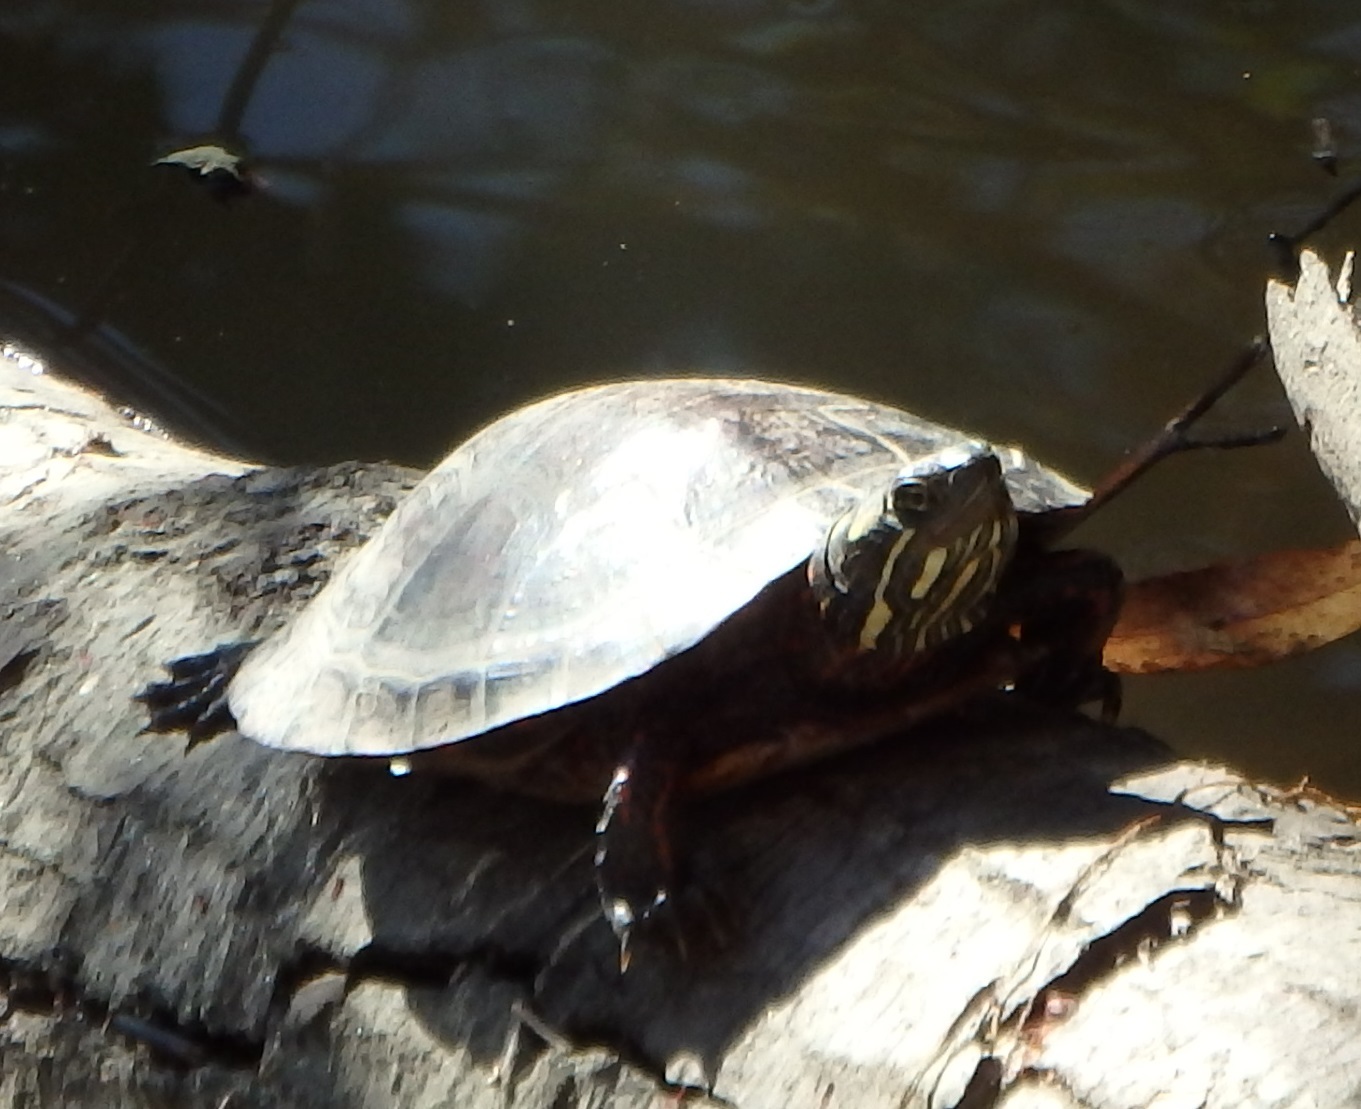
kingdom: Animalia
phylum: Chordata
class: Testudines
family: Emydidae
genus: Chrysemys
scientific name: Chrysemys picta
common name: Painted turtle
